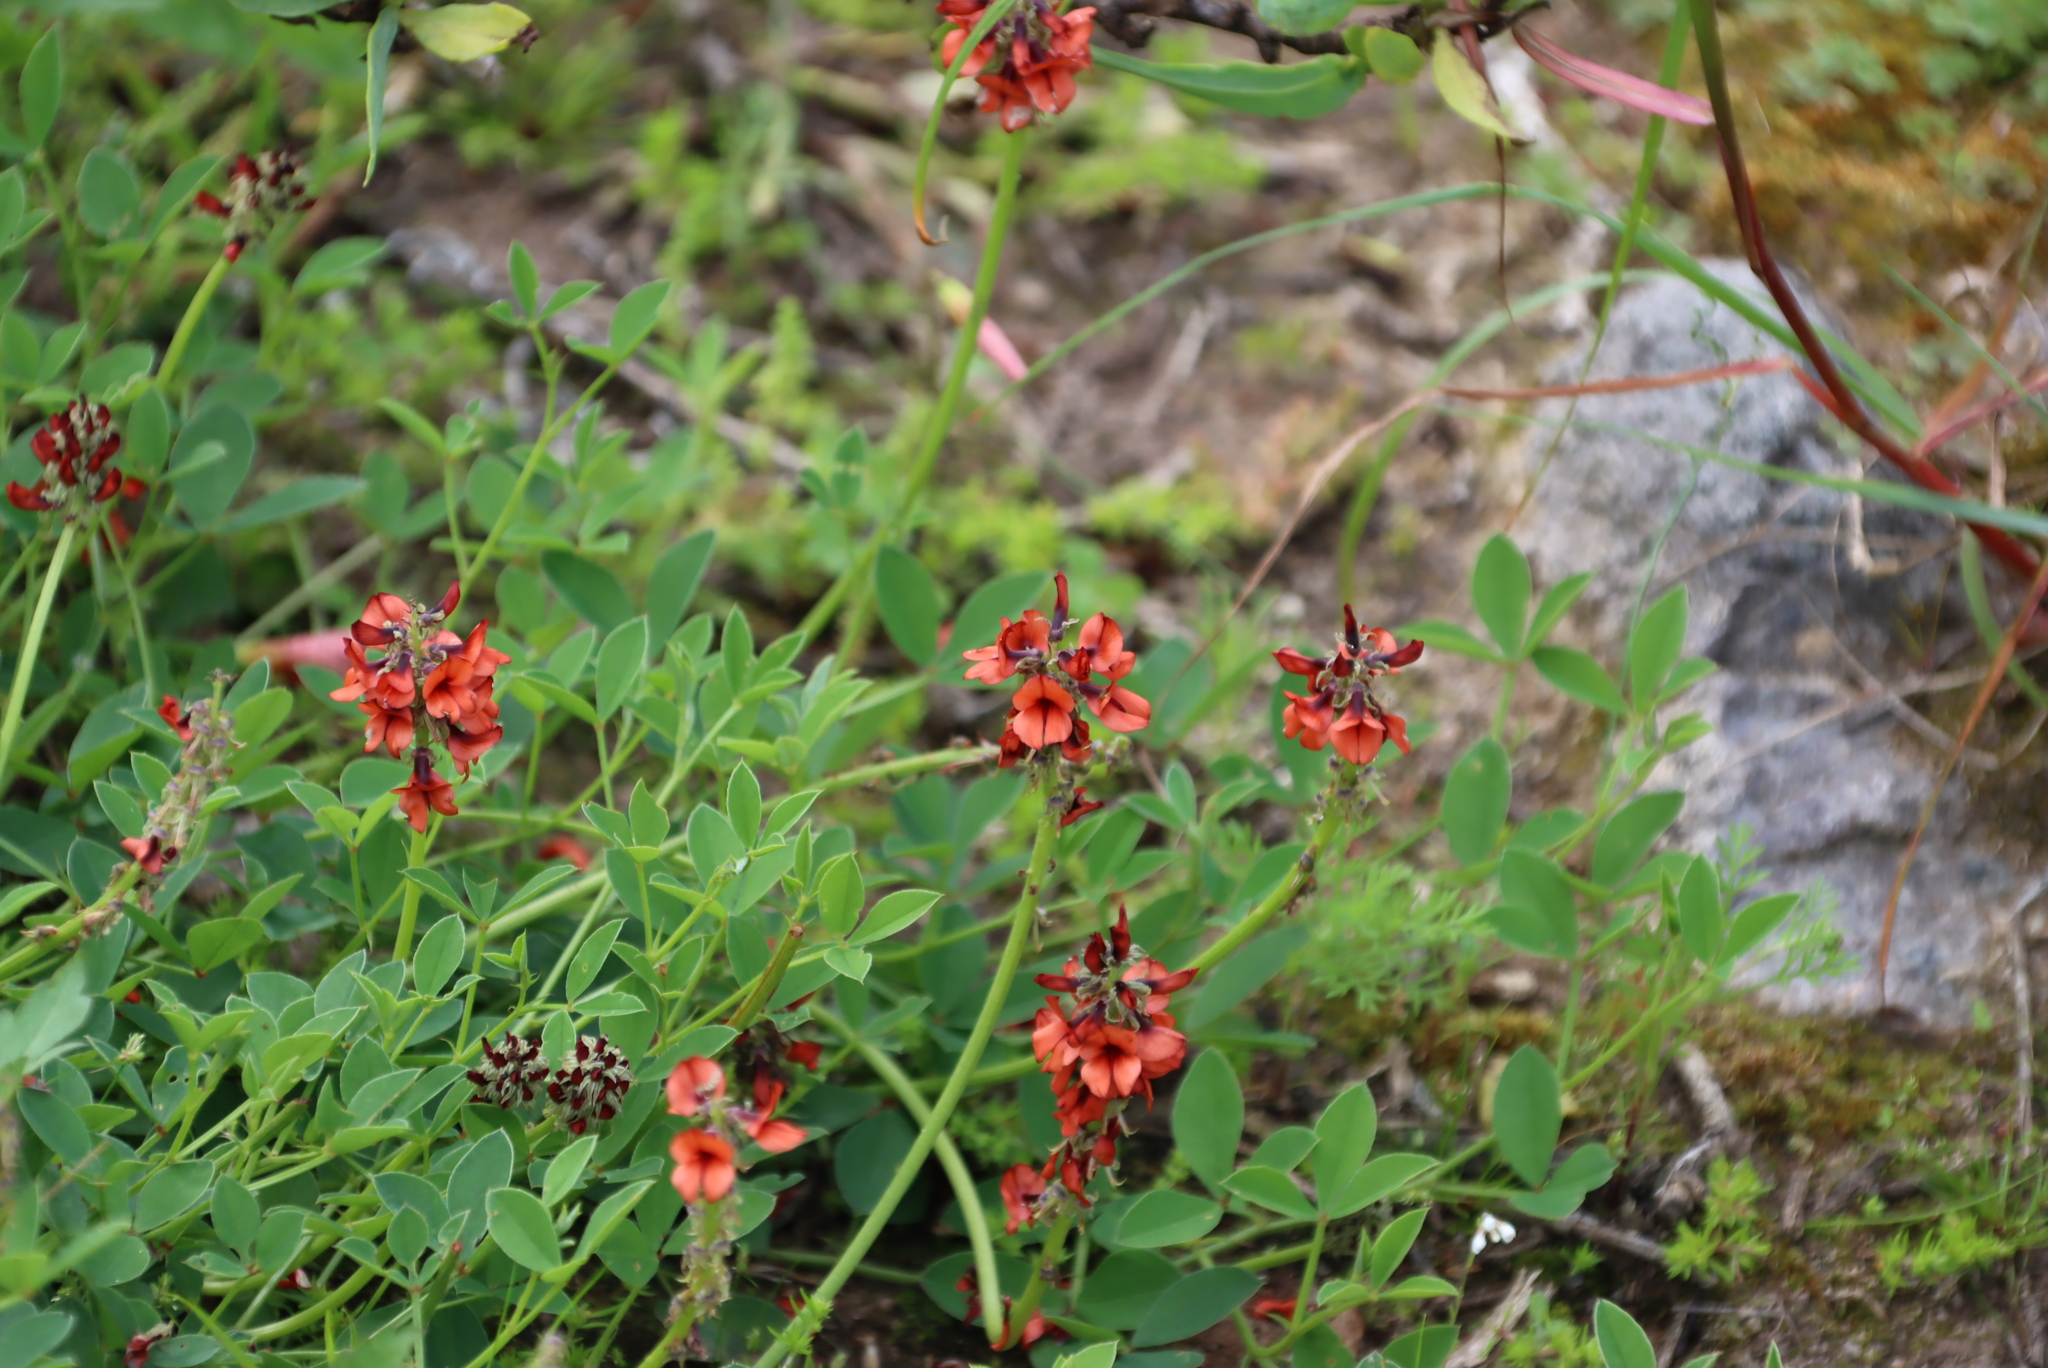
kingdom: Plantae
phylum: Tracheophyta
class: Magnoliopsida
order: Fabales
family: Fabaceae
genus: Indigofera
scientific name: Indigofera
